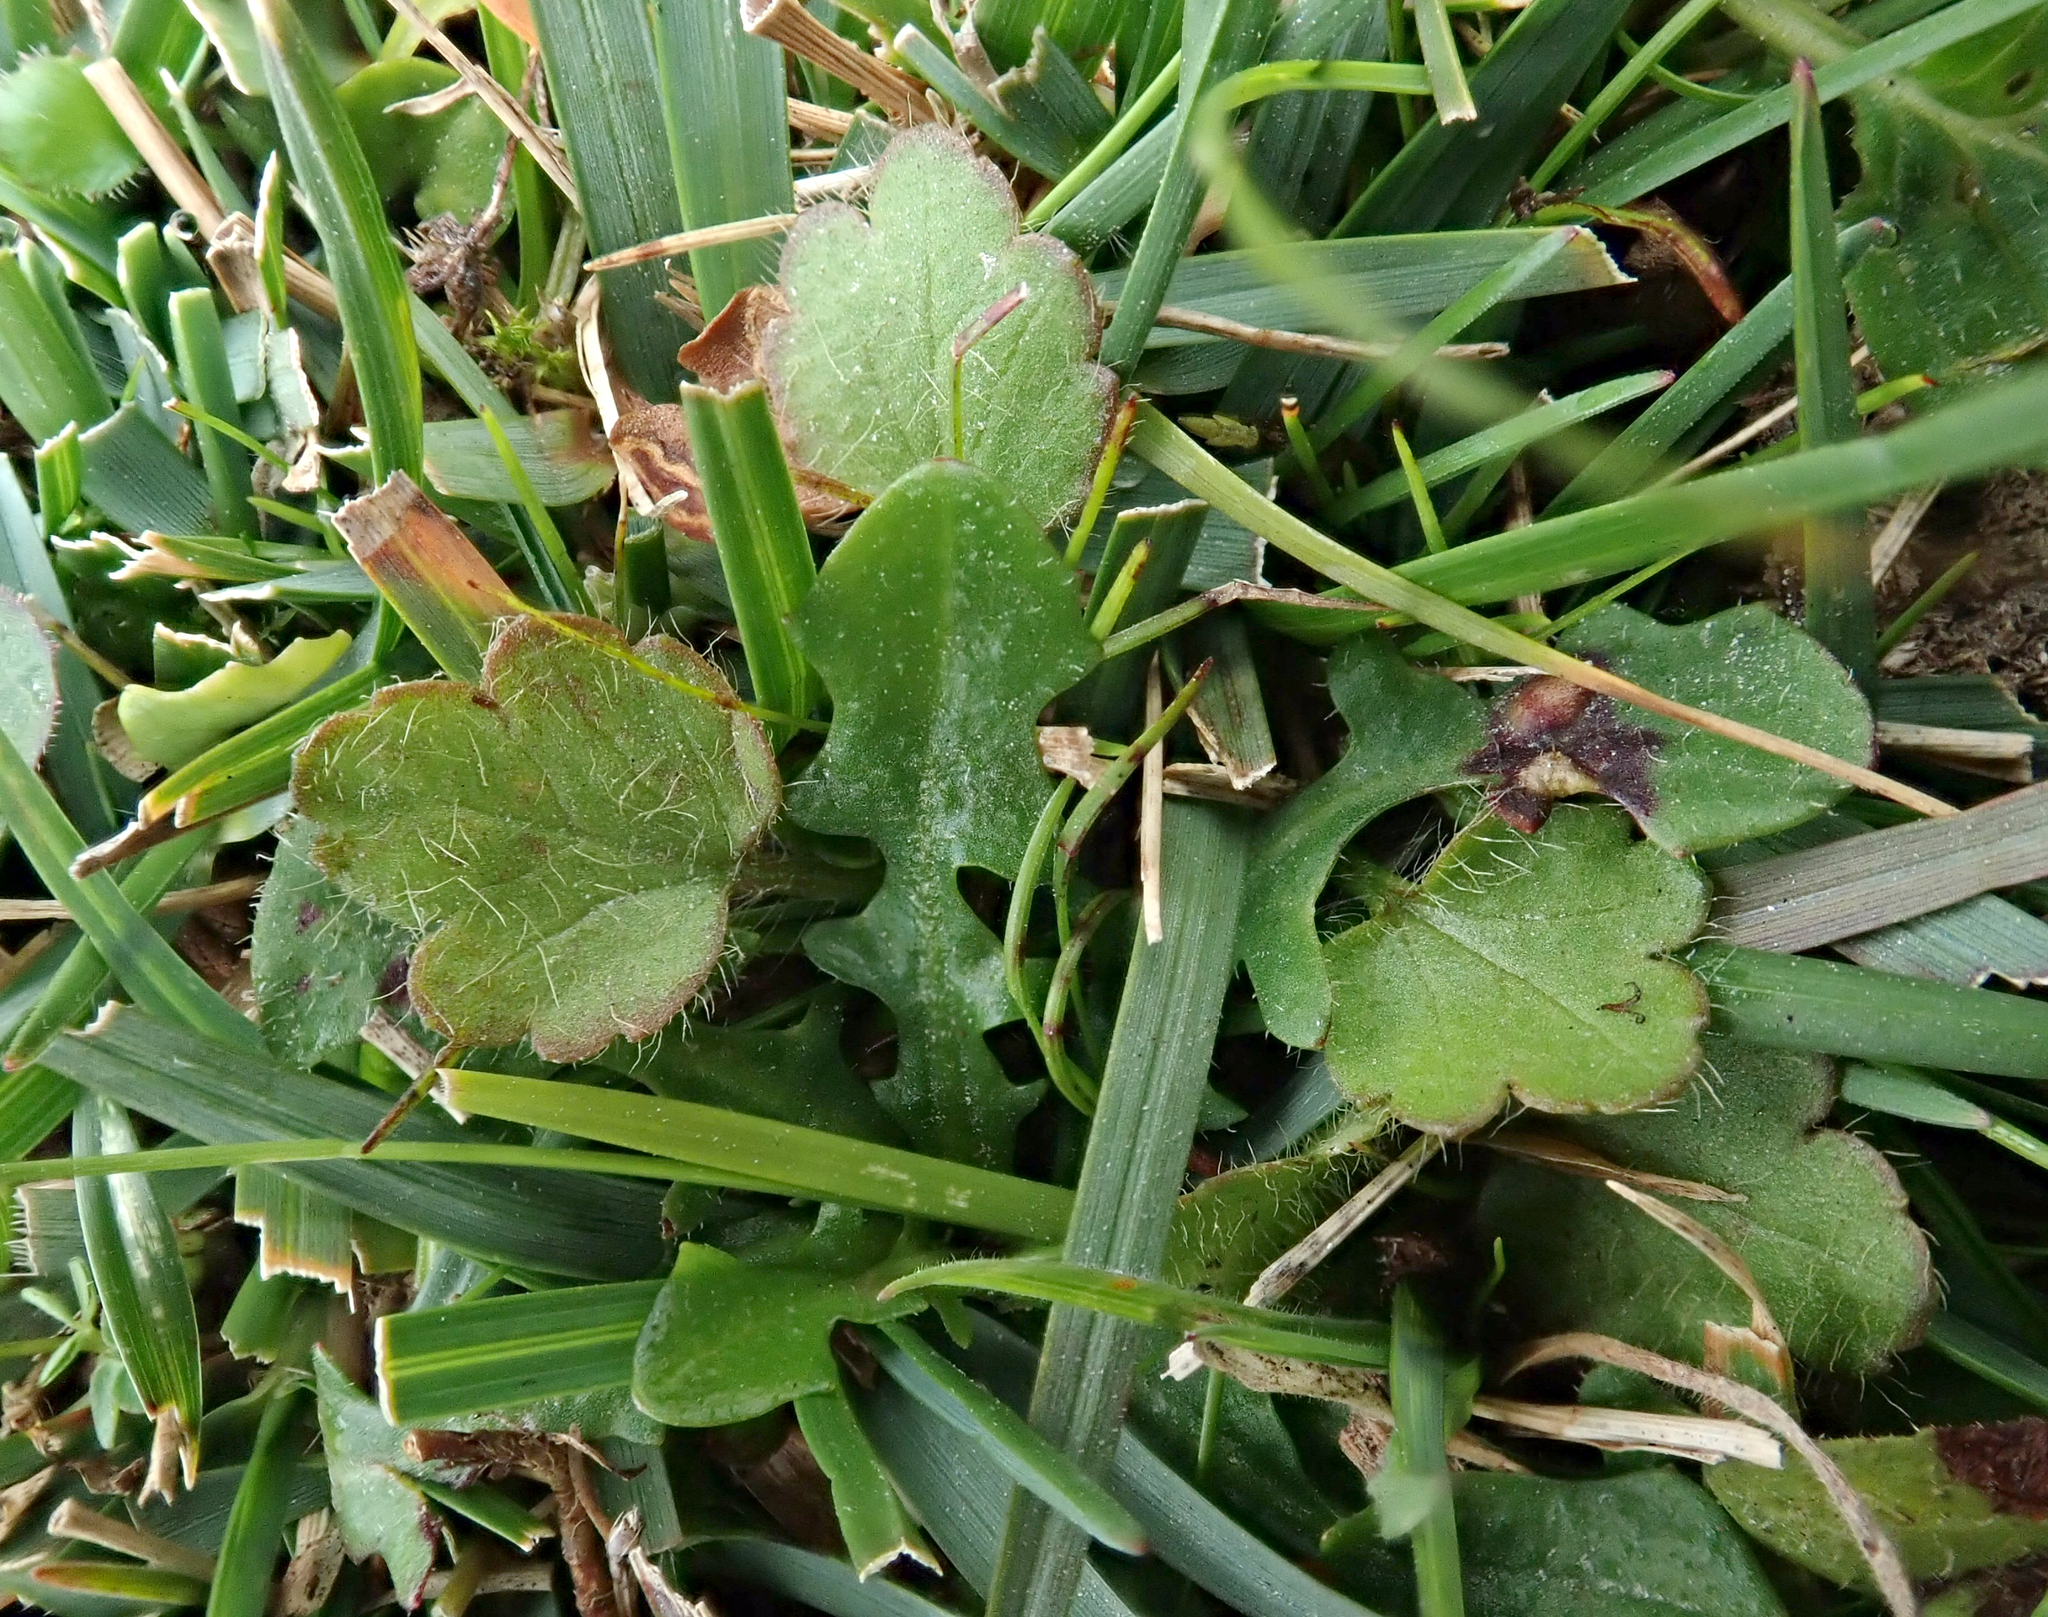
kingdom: Plantae
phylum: Tracheophyta
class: Magnoliopsida
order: Ranunculales
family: Ranunculaceae
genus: Ranunculus
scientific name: Ranunculus royi
